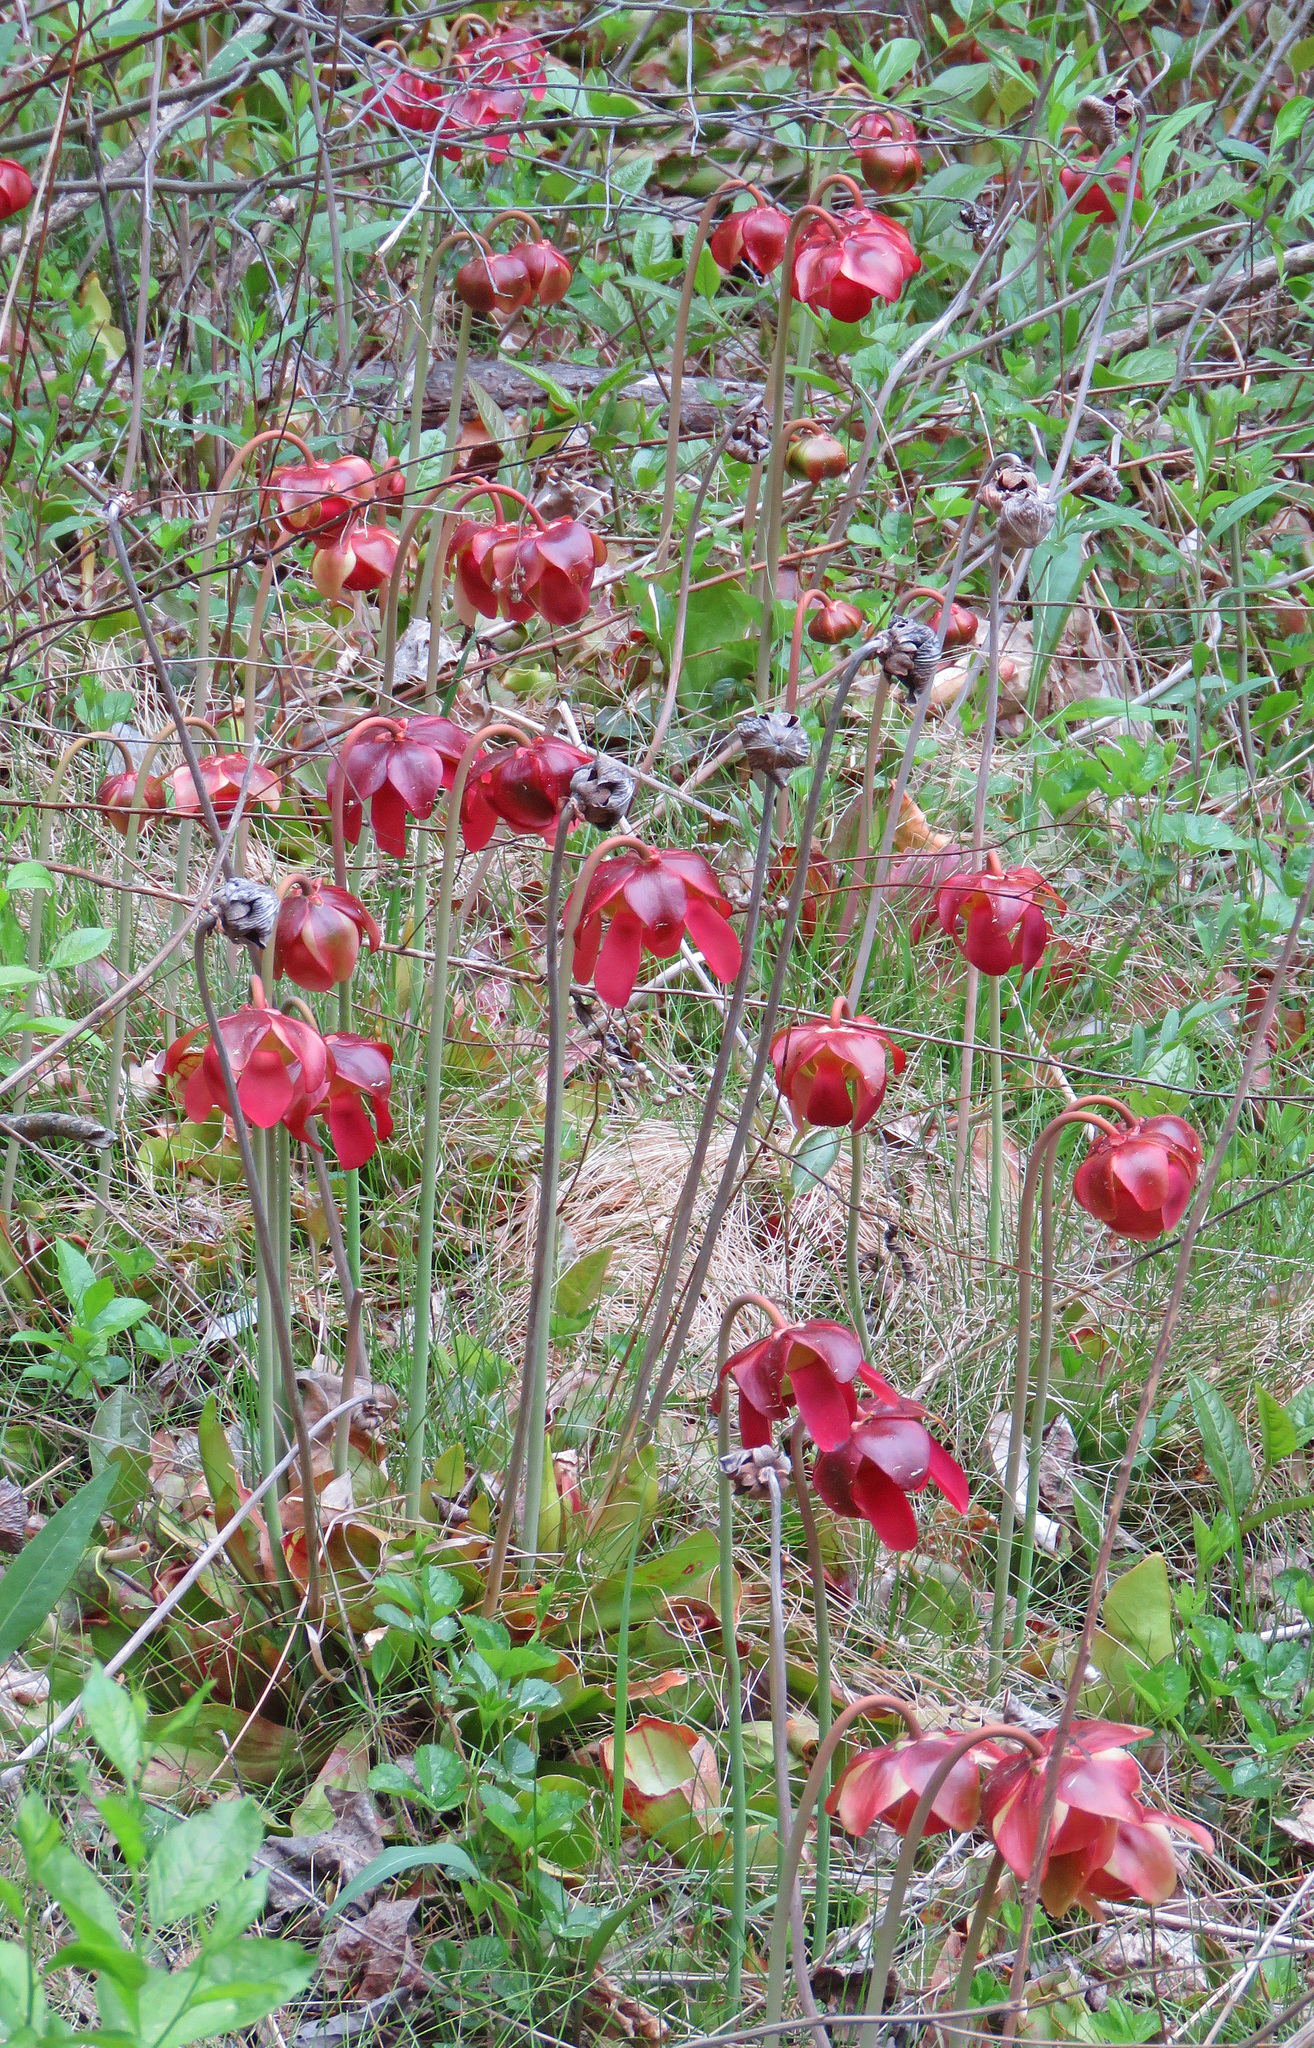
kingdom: Plantae
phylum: Tracheophyta
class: Magnoliopsida
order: Ericales
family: Sarraceniaceae
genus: Sarracenia
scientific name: Sarracenia purpurea
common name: Pitcherplant
